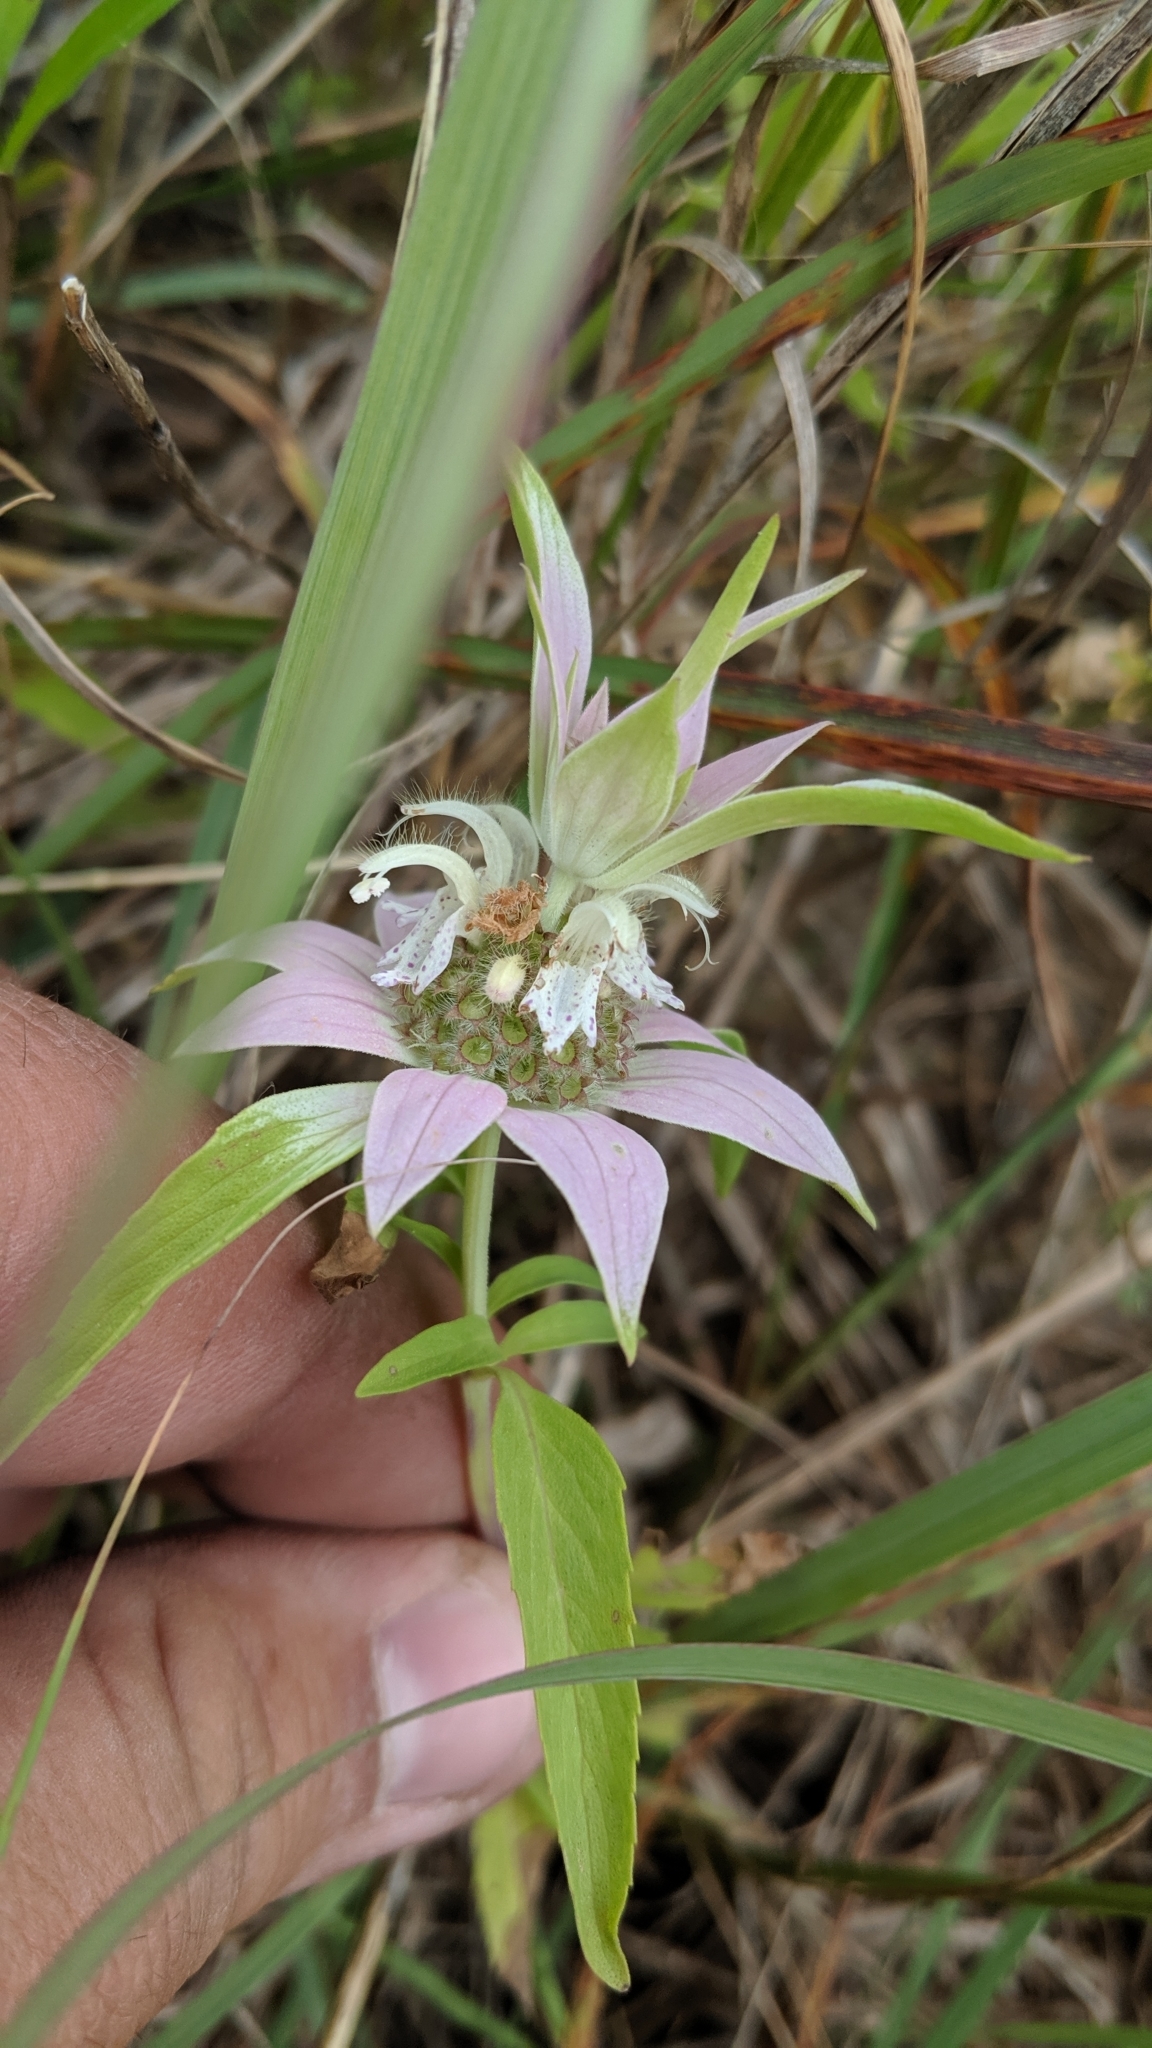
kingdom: Plantae
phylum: Tracheophyta
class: Magnoliopsida
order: Lamiales
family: Lamiaceae
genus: Monarda
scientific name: Monarda punctata
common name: Dotted monarda
